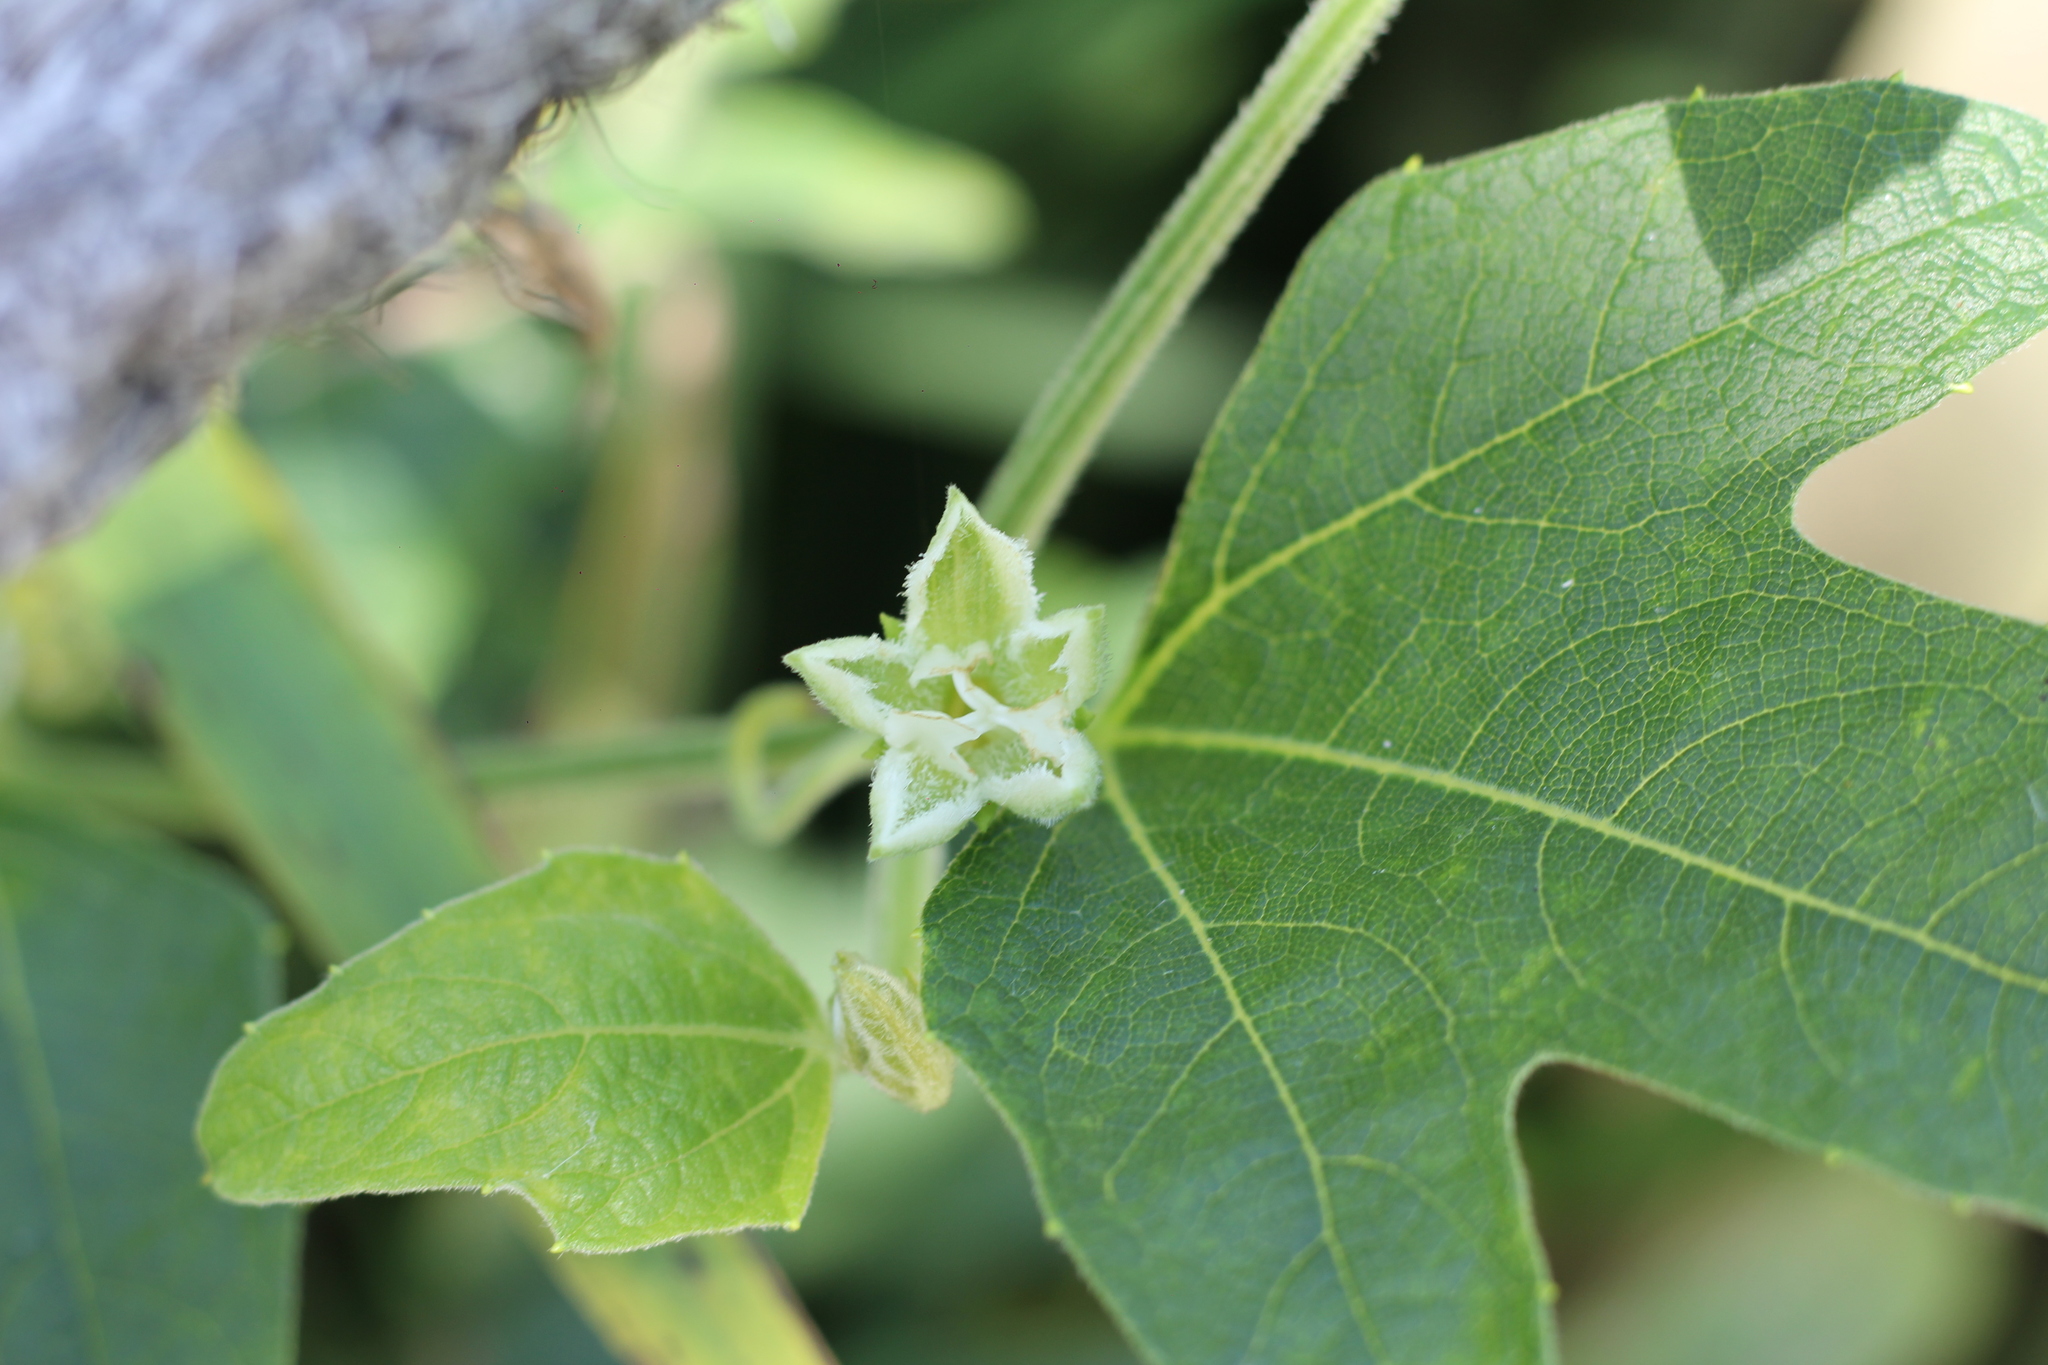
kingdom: Plantae
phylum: Tracheophyta
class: Magnoliopsida
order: Cucurbitales
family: Cucurbitaceae
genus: Cayaponia
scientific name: Cayaponia podantha
